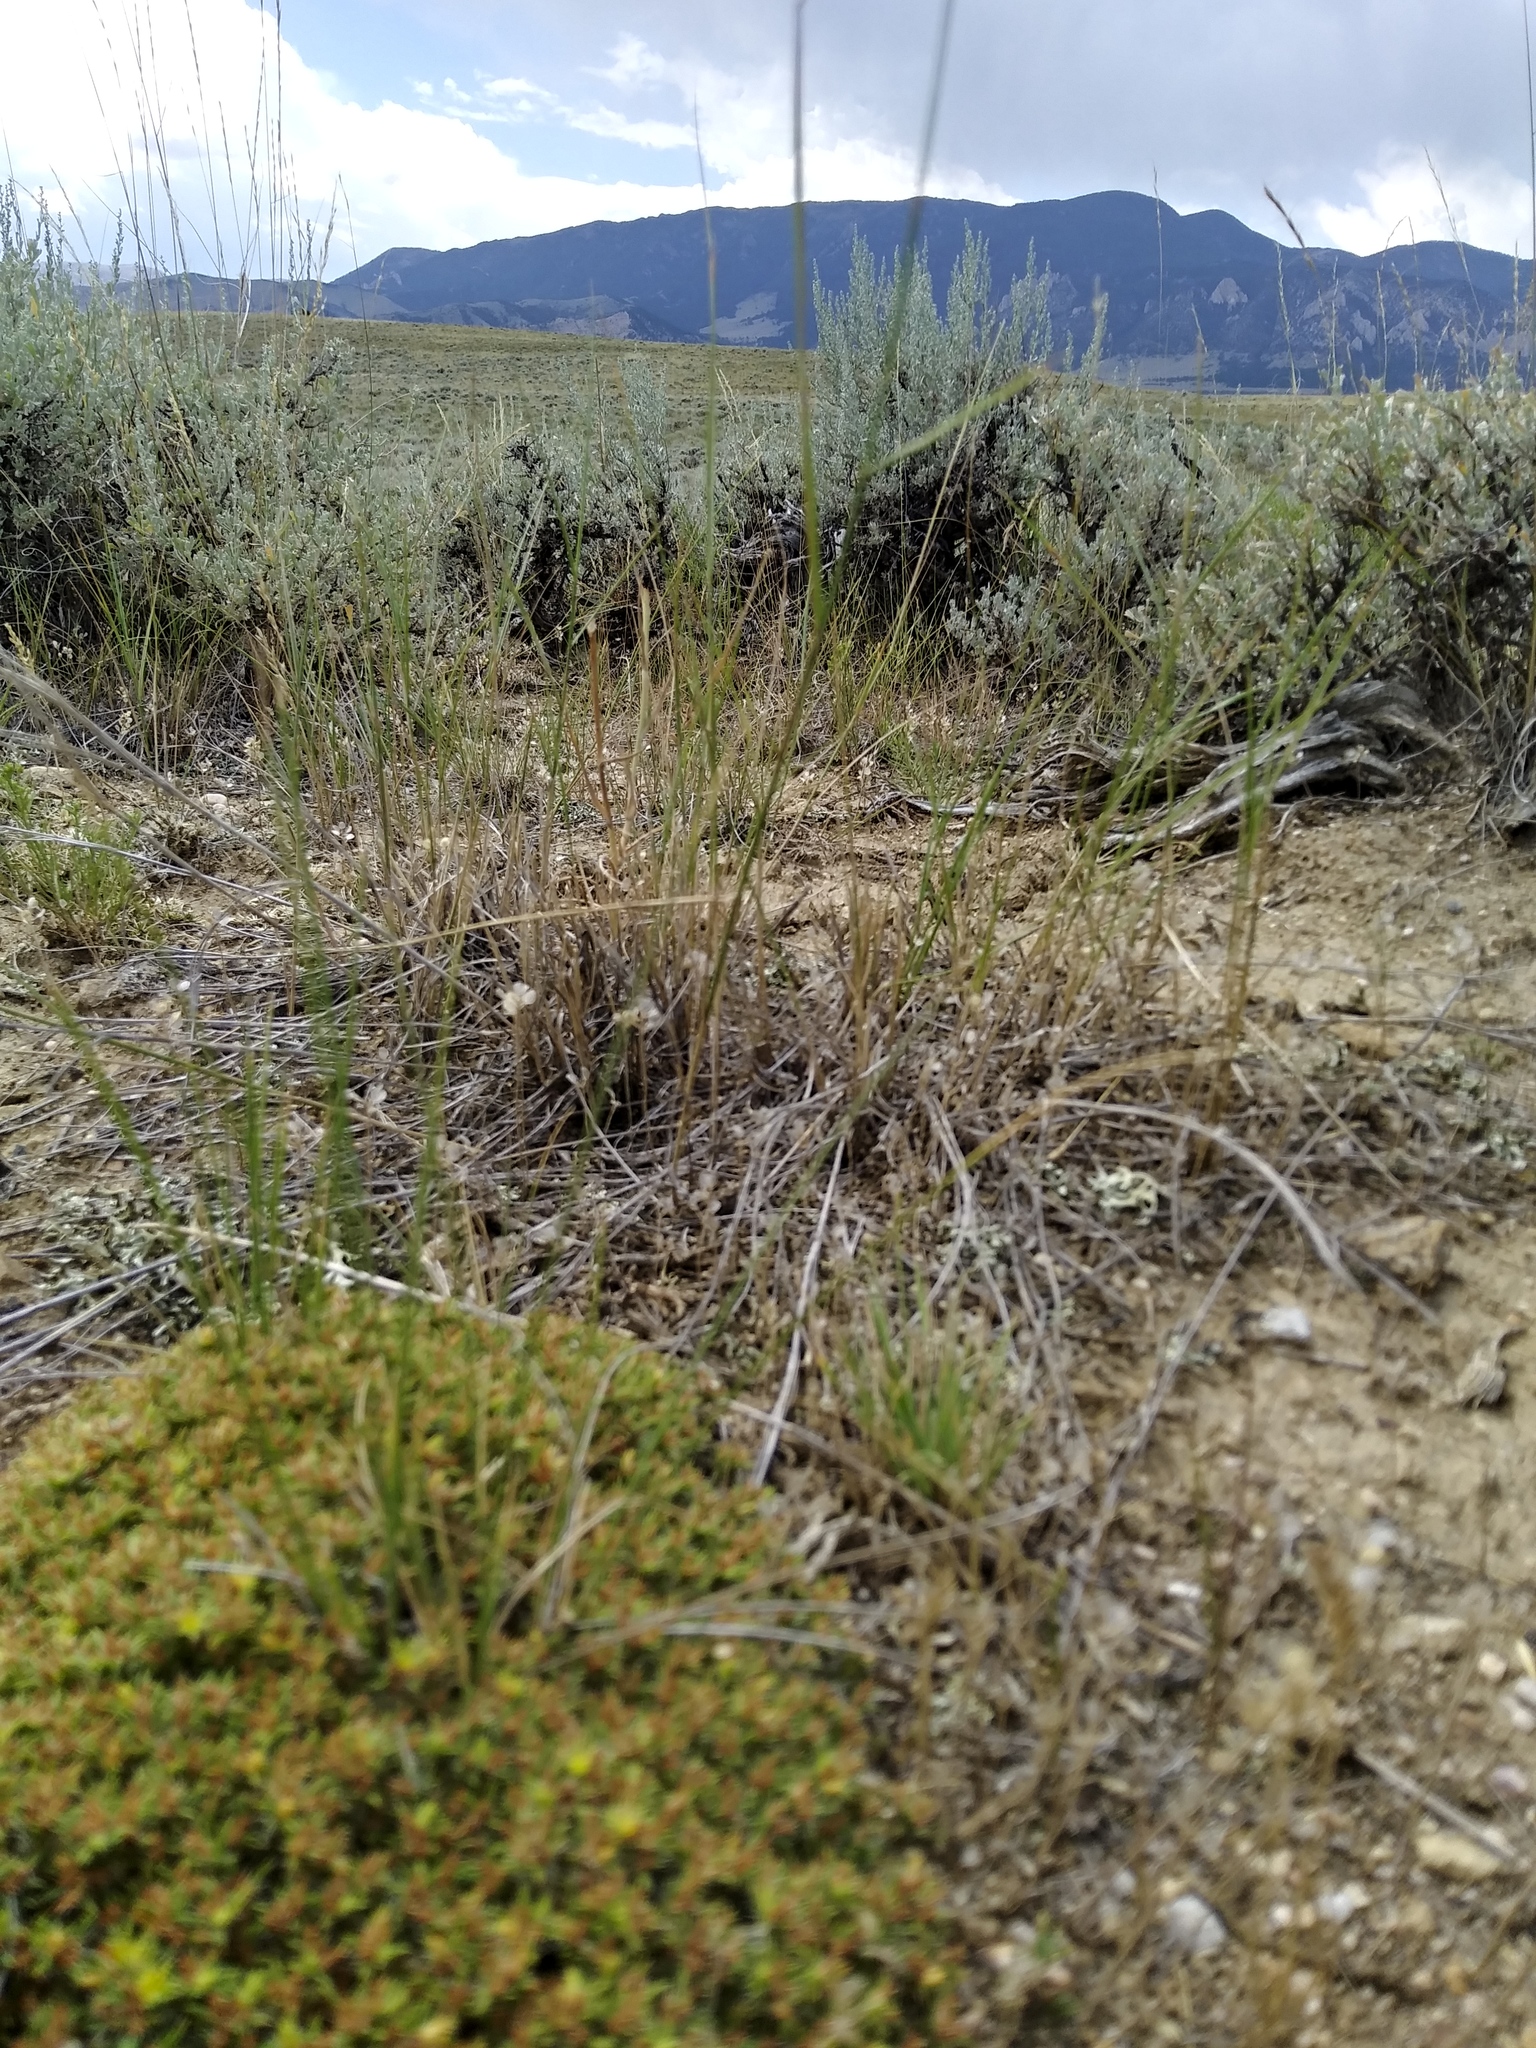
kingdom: Plantae
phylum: Tracheophyta
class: Magnoliopsida
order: Caryophyllales
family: Caryophyllaceae
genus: Paronychia
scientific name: Paronychia sessiliflora
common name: Creeping nailwort
